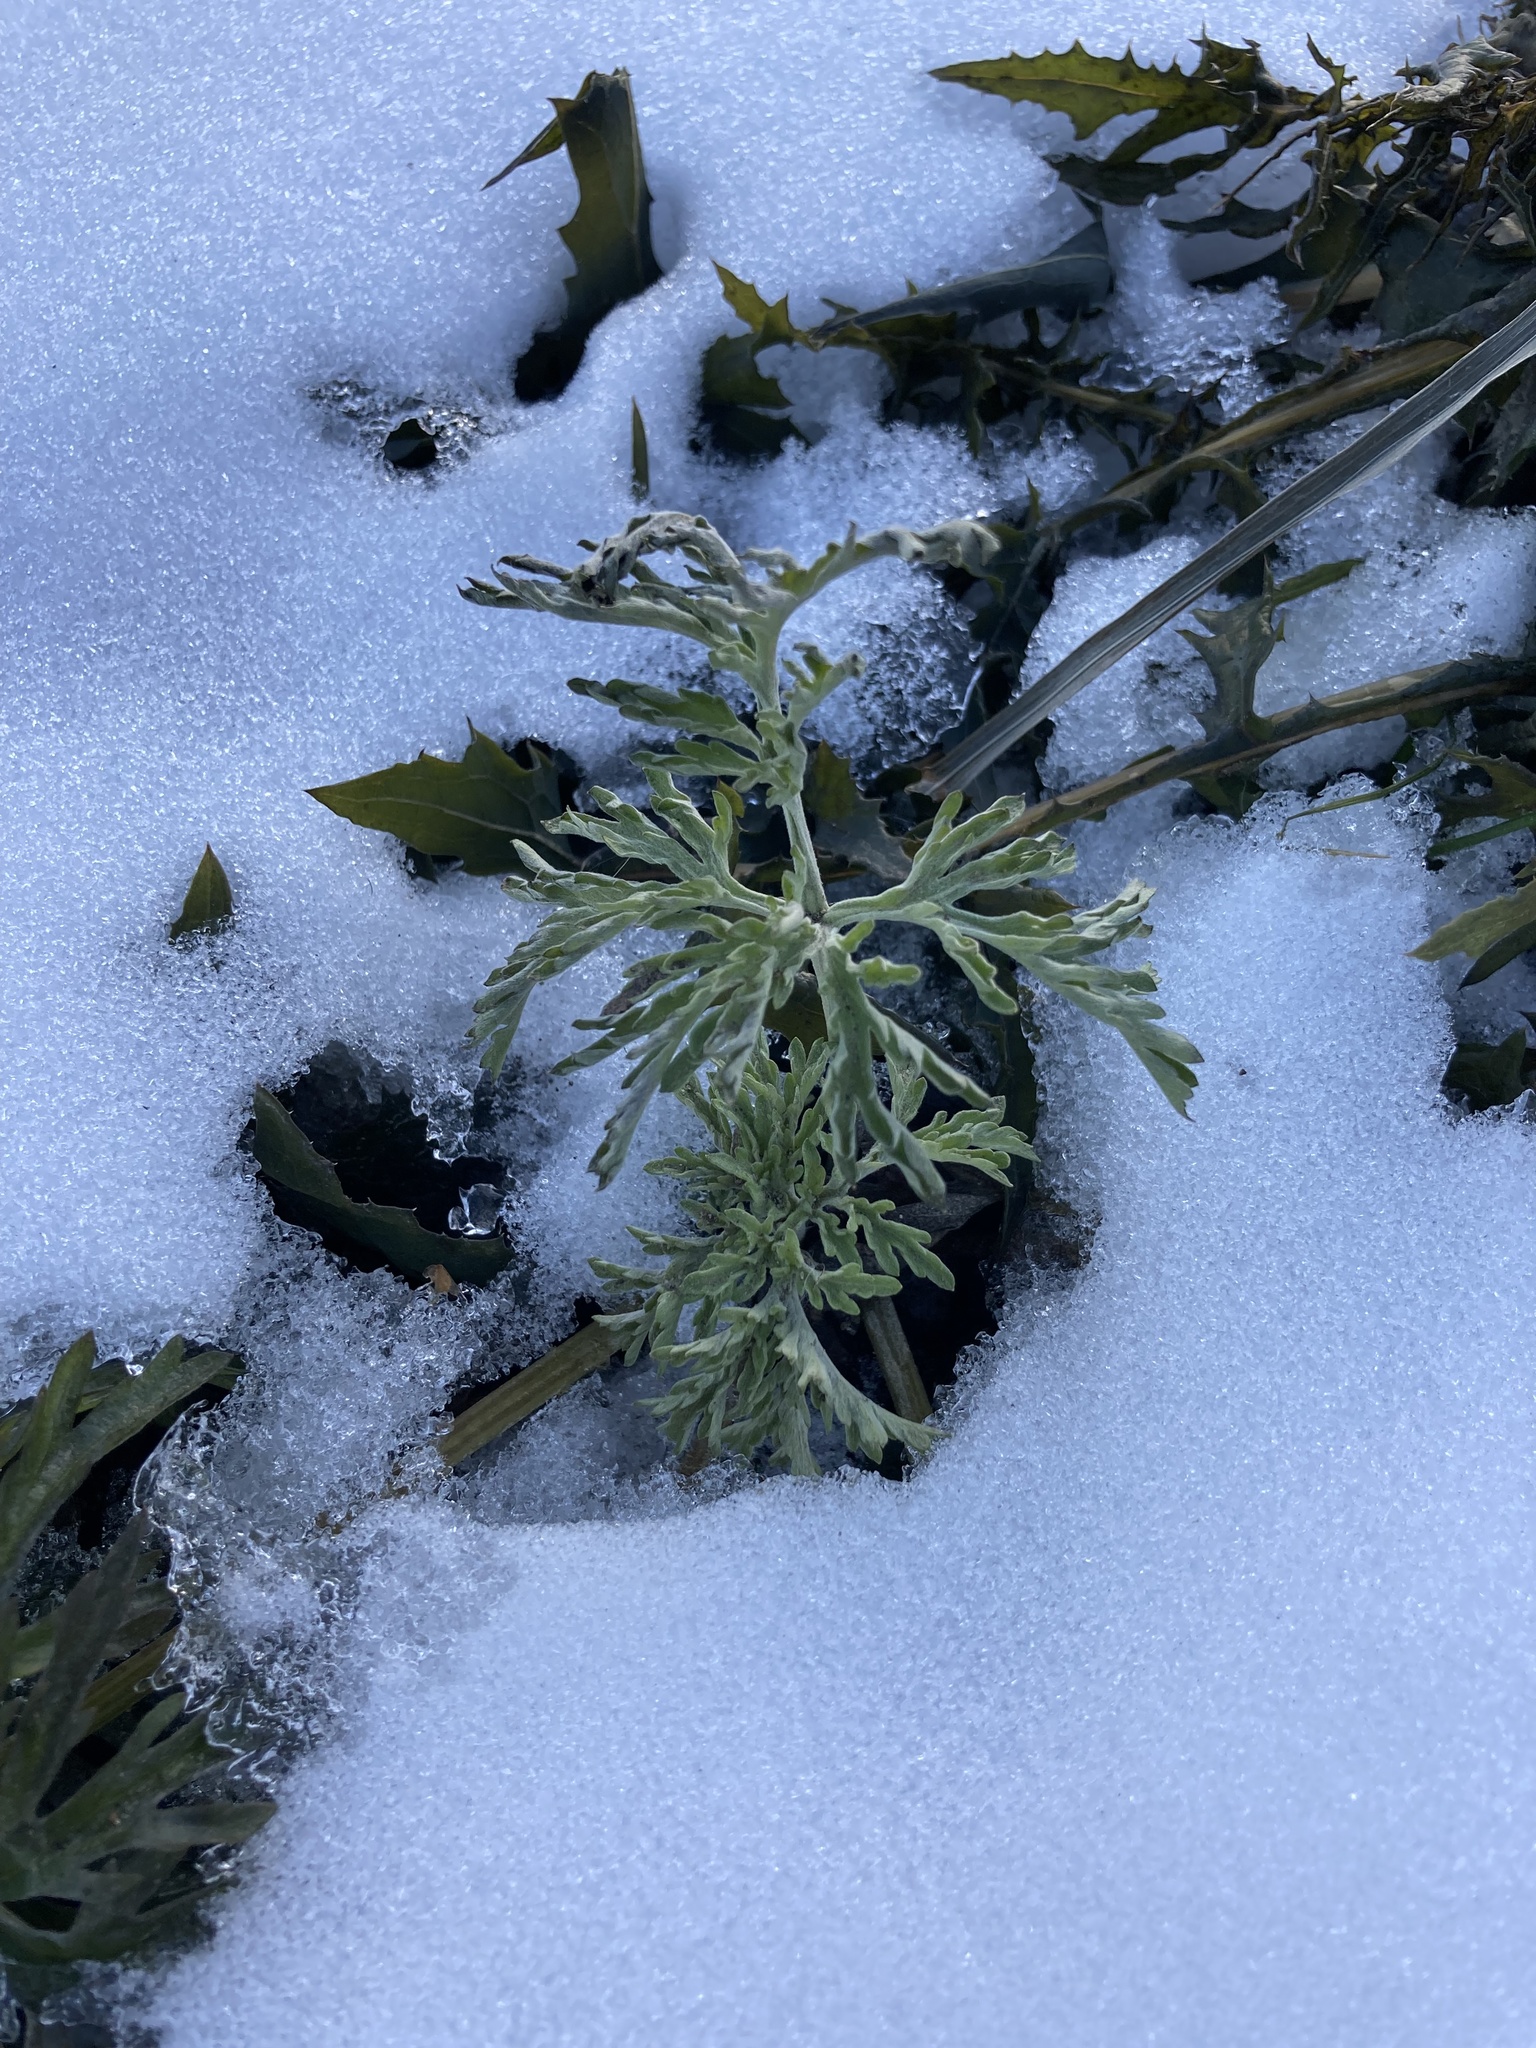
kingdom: Plantae
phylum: Tracheophyta
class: Magnoliopsida
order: Asterales
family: Asteraceae
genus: Artemisia
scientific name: Artemisia absinthium
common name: Wormwood
